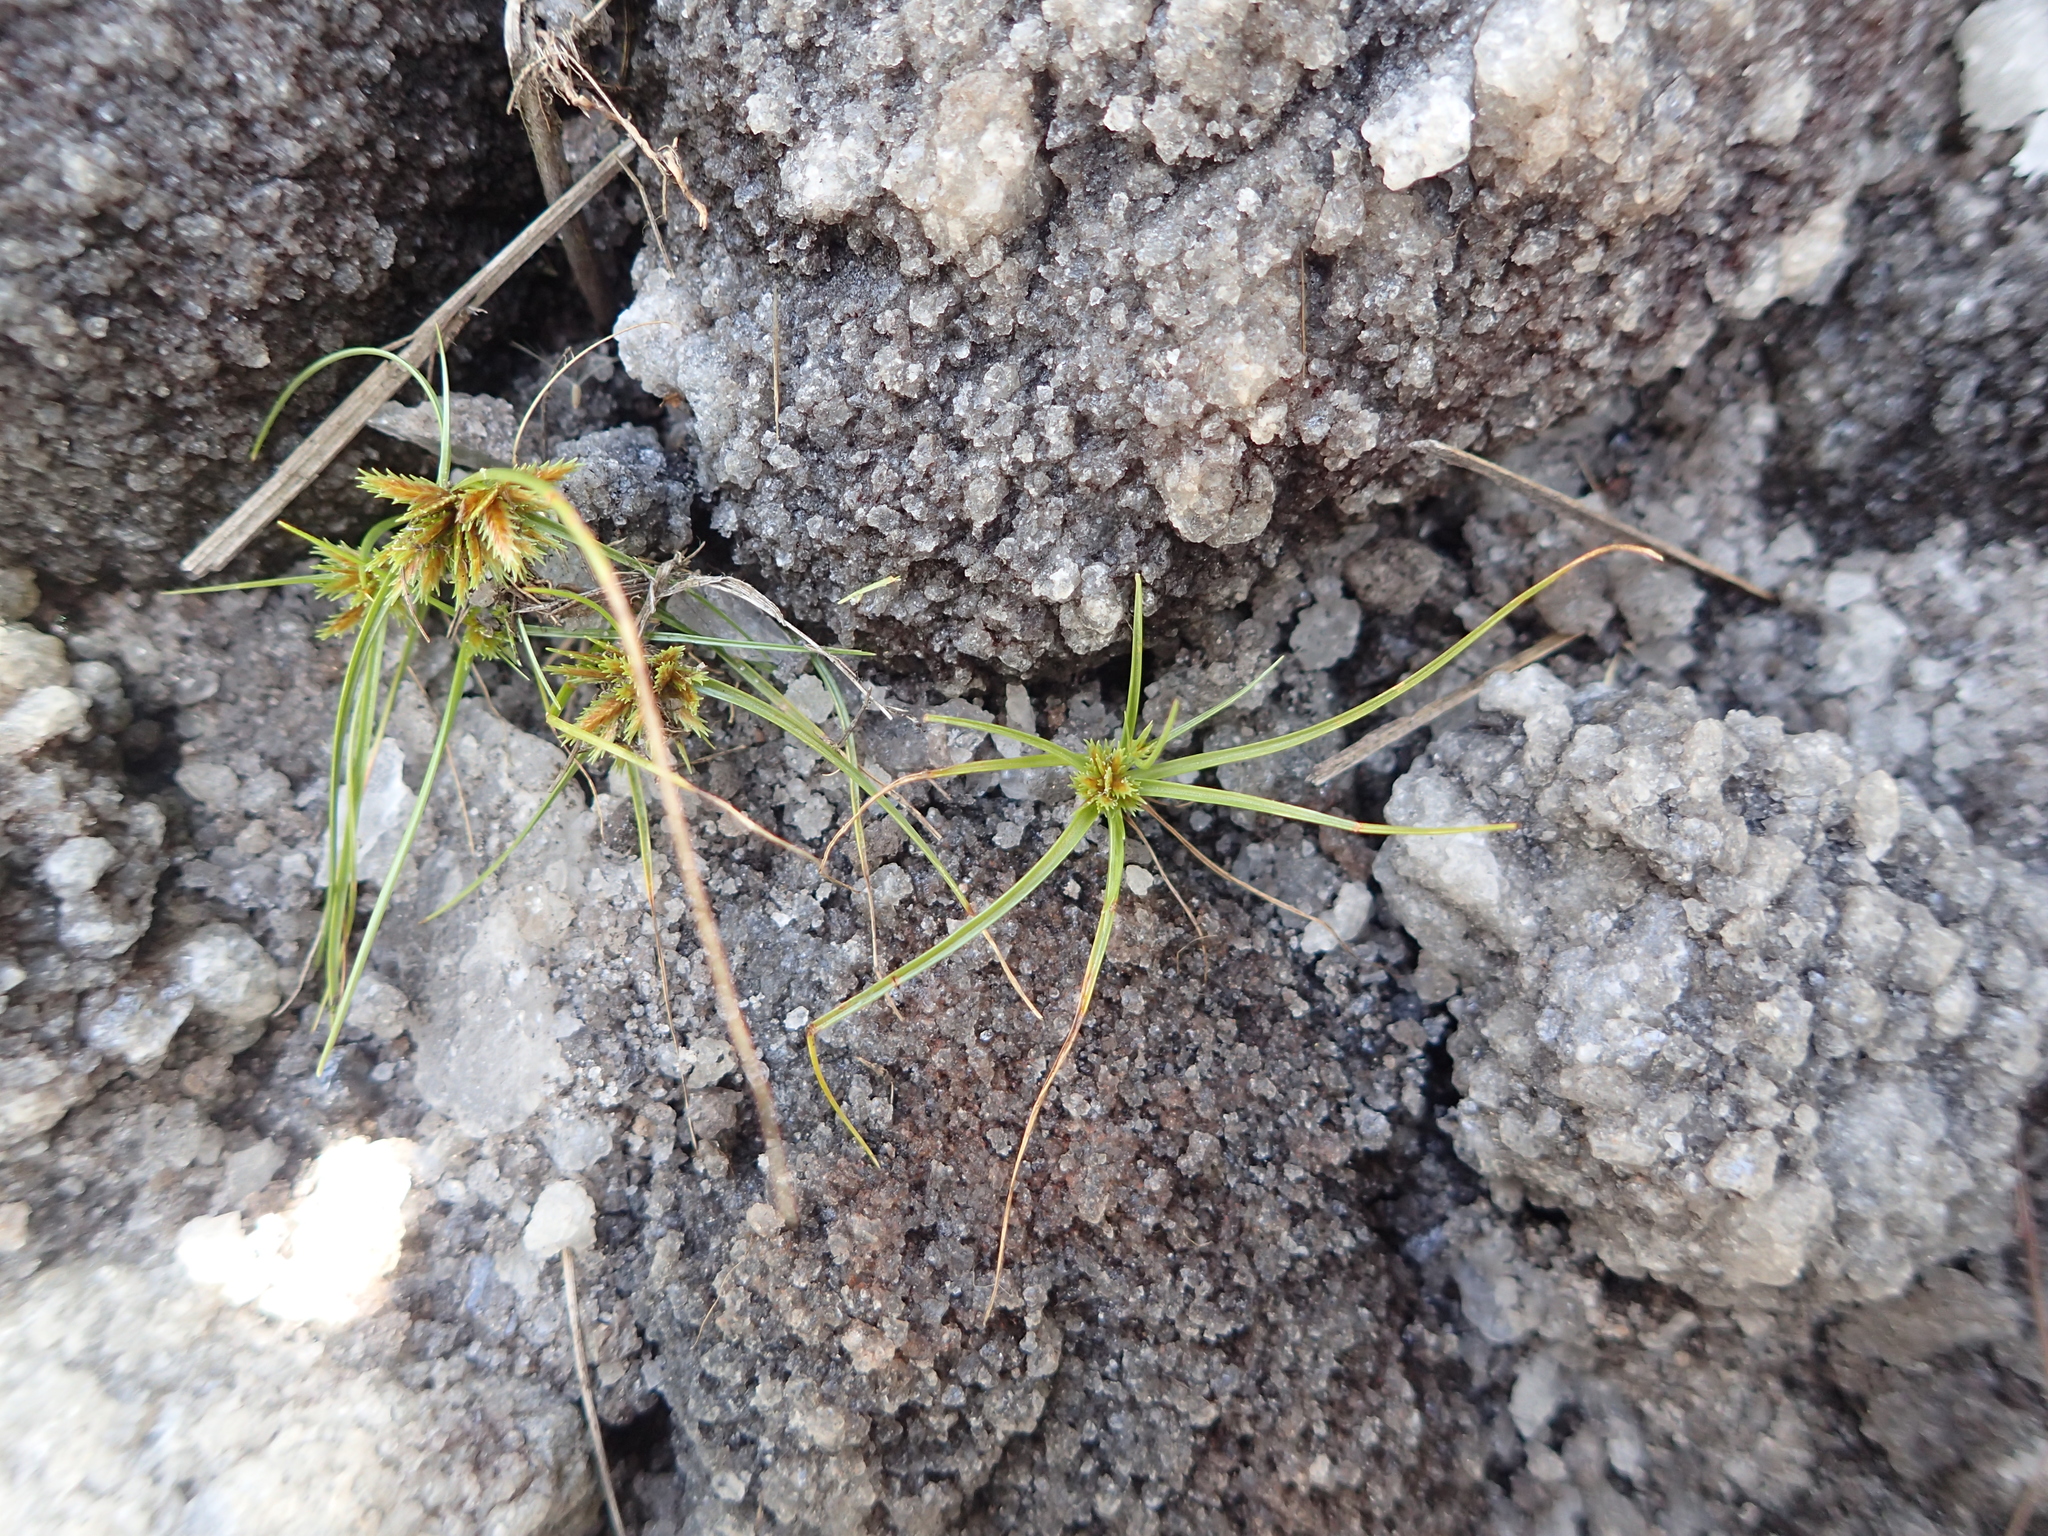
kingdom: Plantae
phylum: Tracheophyta
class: Liliopsida
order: Poales
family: Cyperaceae
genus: Cyperus
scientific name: Cyperus cuspidatus
